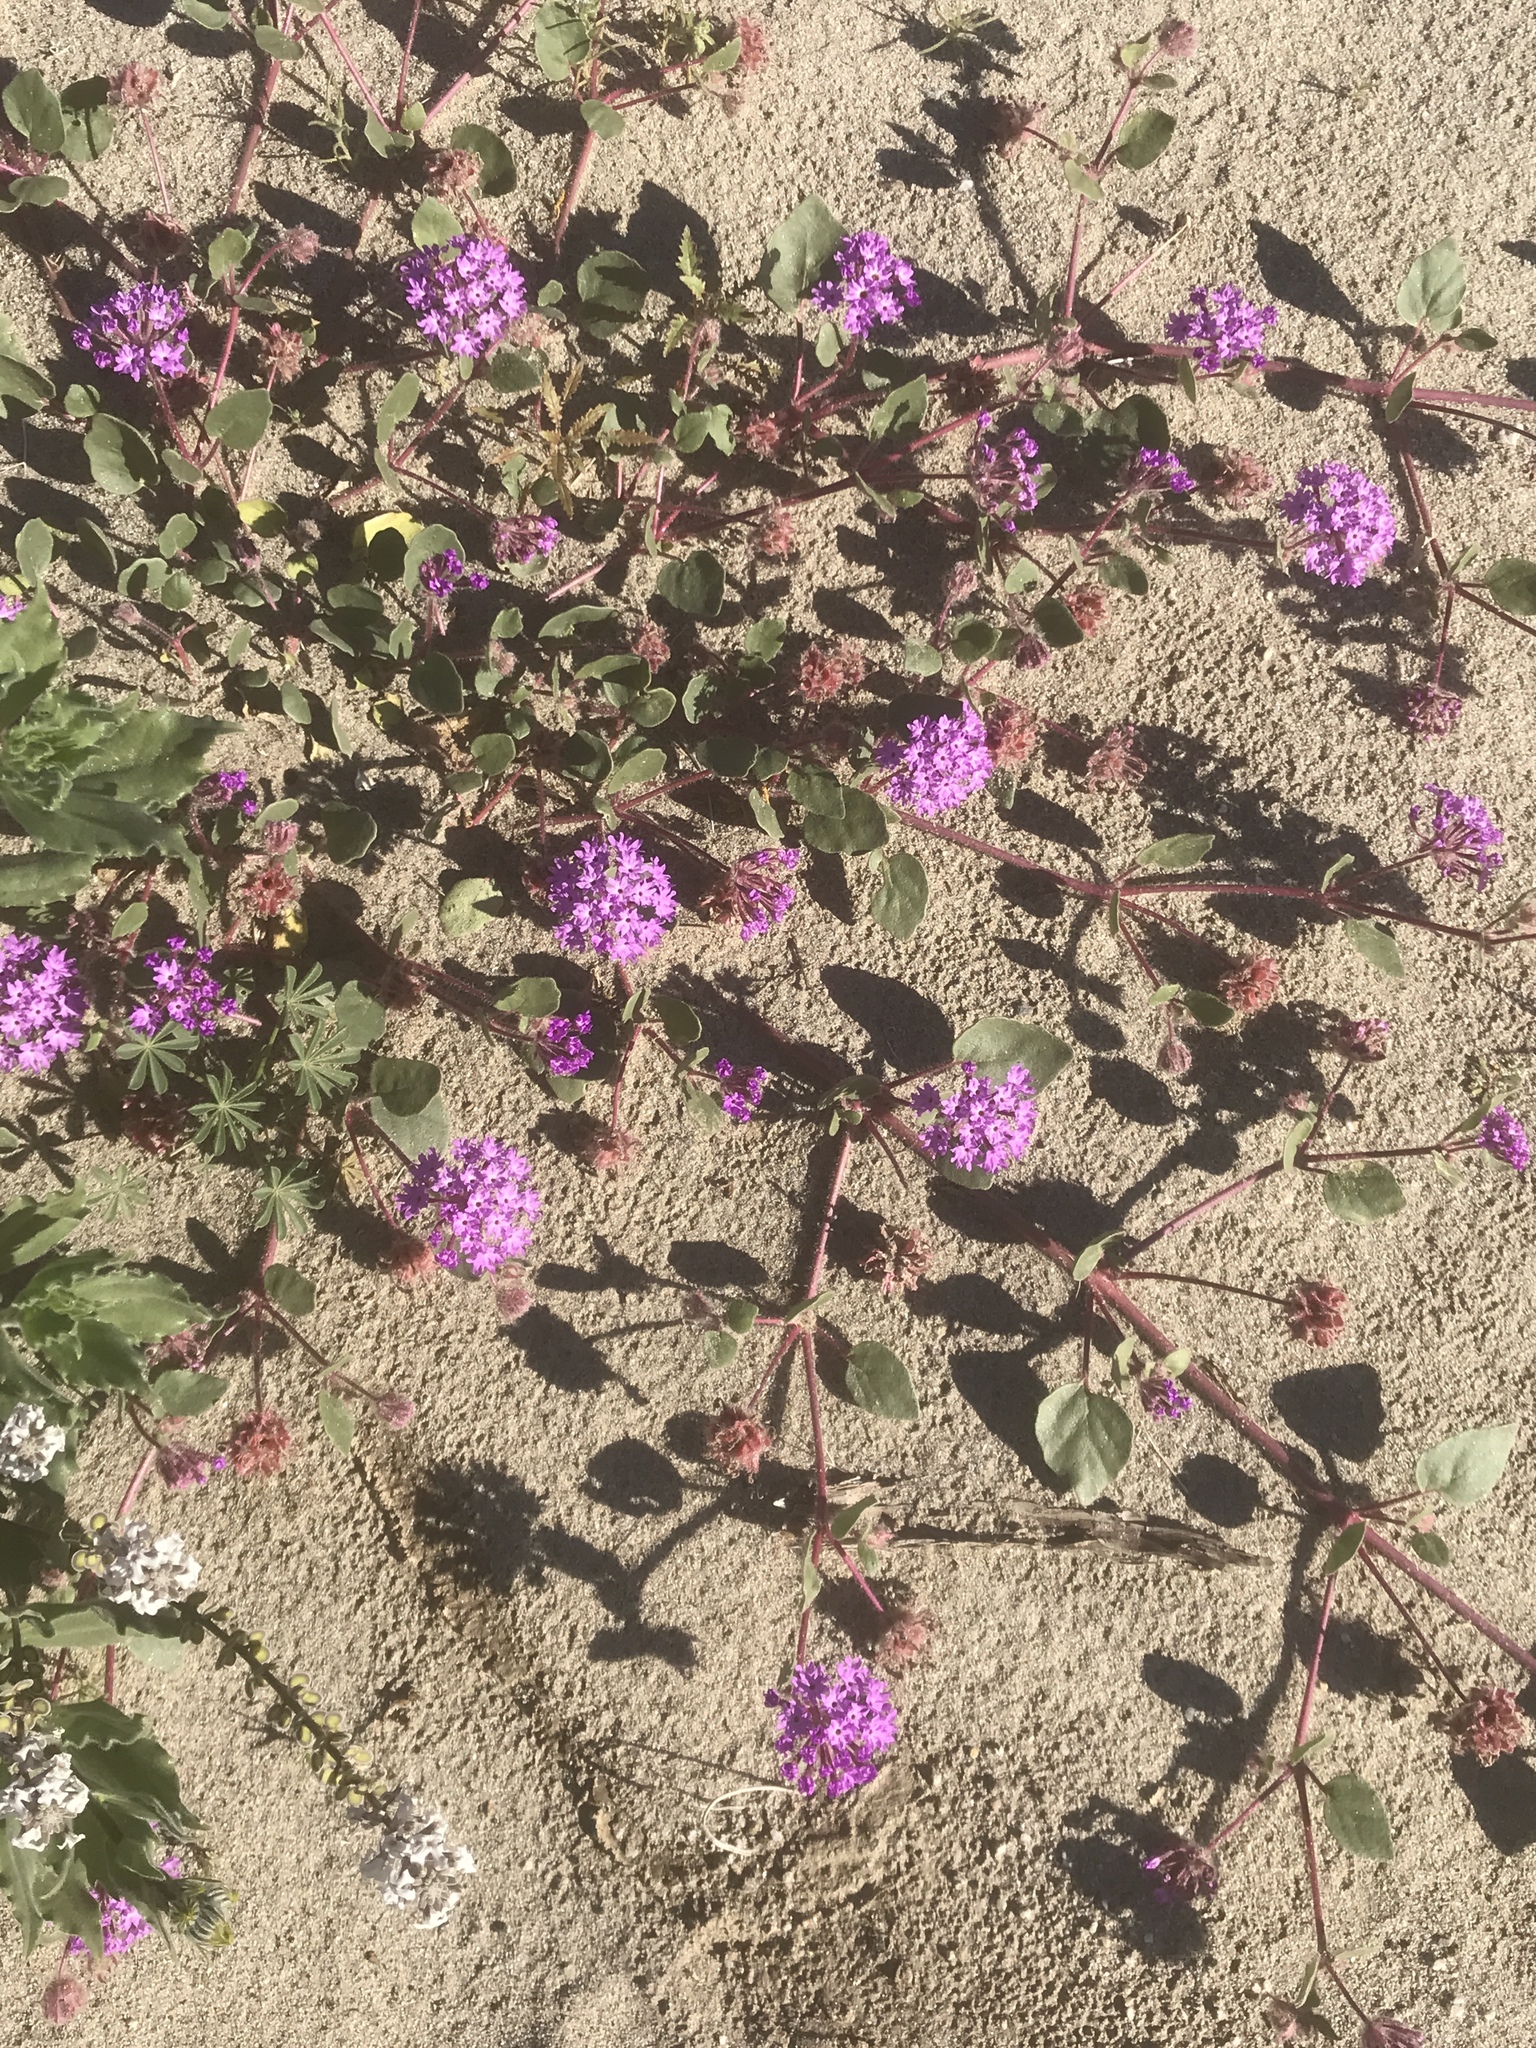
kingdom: Plantae
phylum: Tracheophyta
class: Magnoliopsida
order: Caryophyllales
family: Nyctaginaceae
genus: Abronia
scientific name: Abronia villosa
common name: Desert sand-verbena
